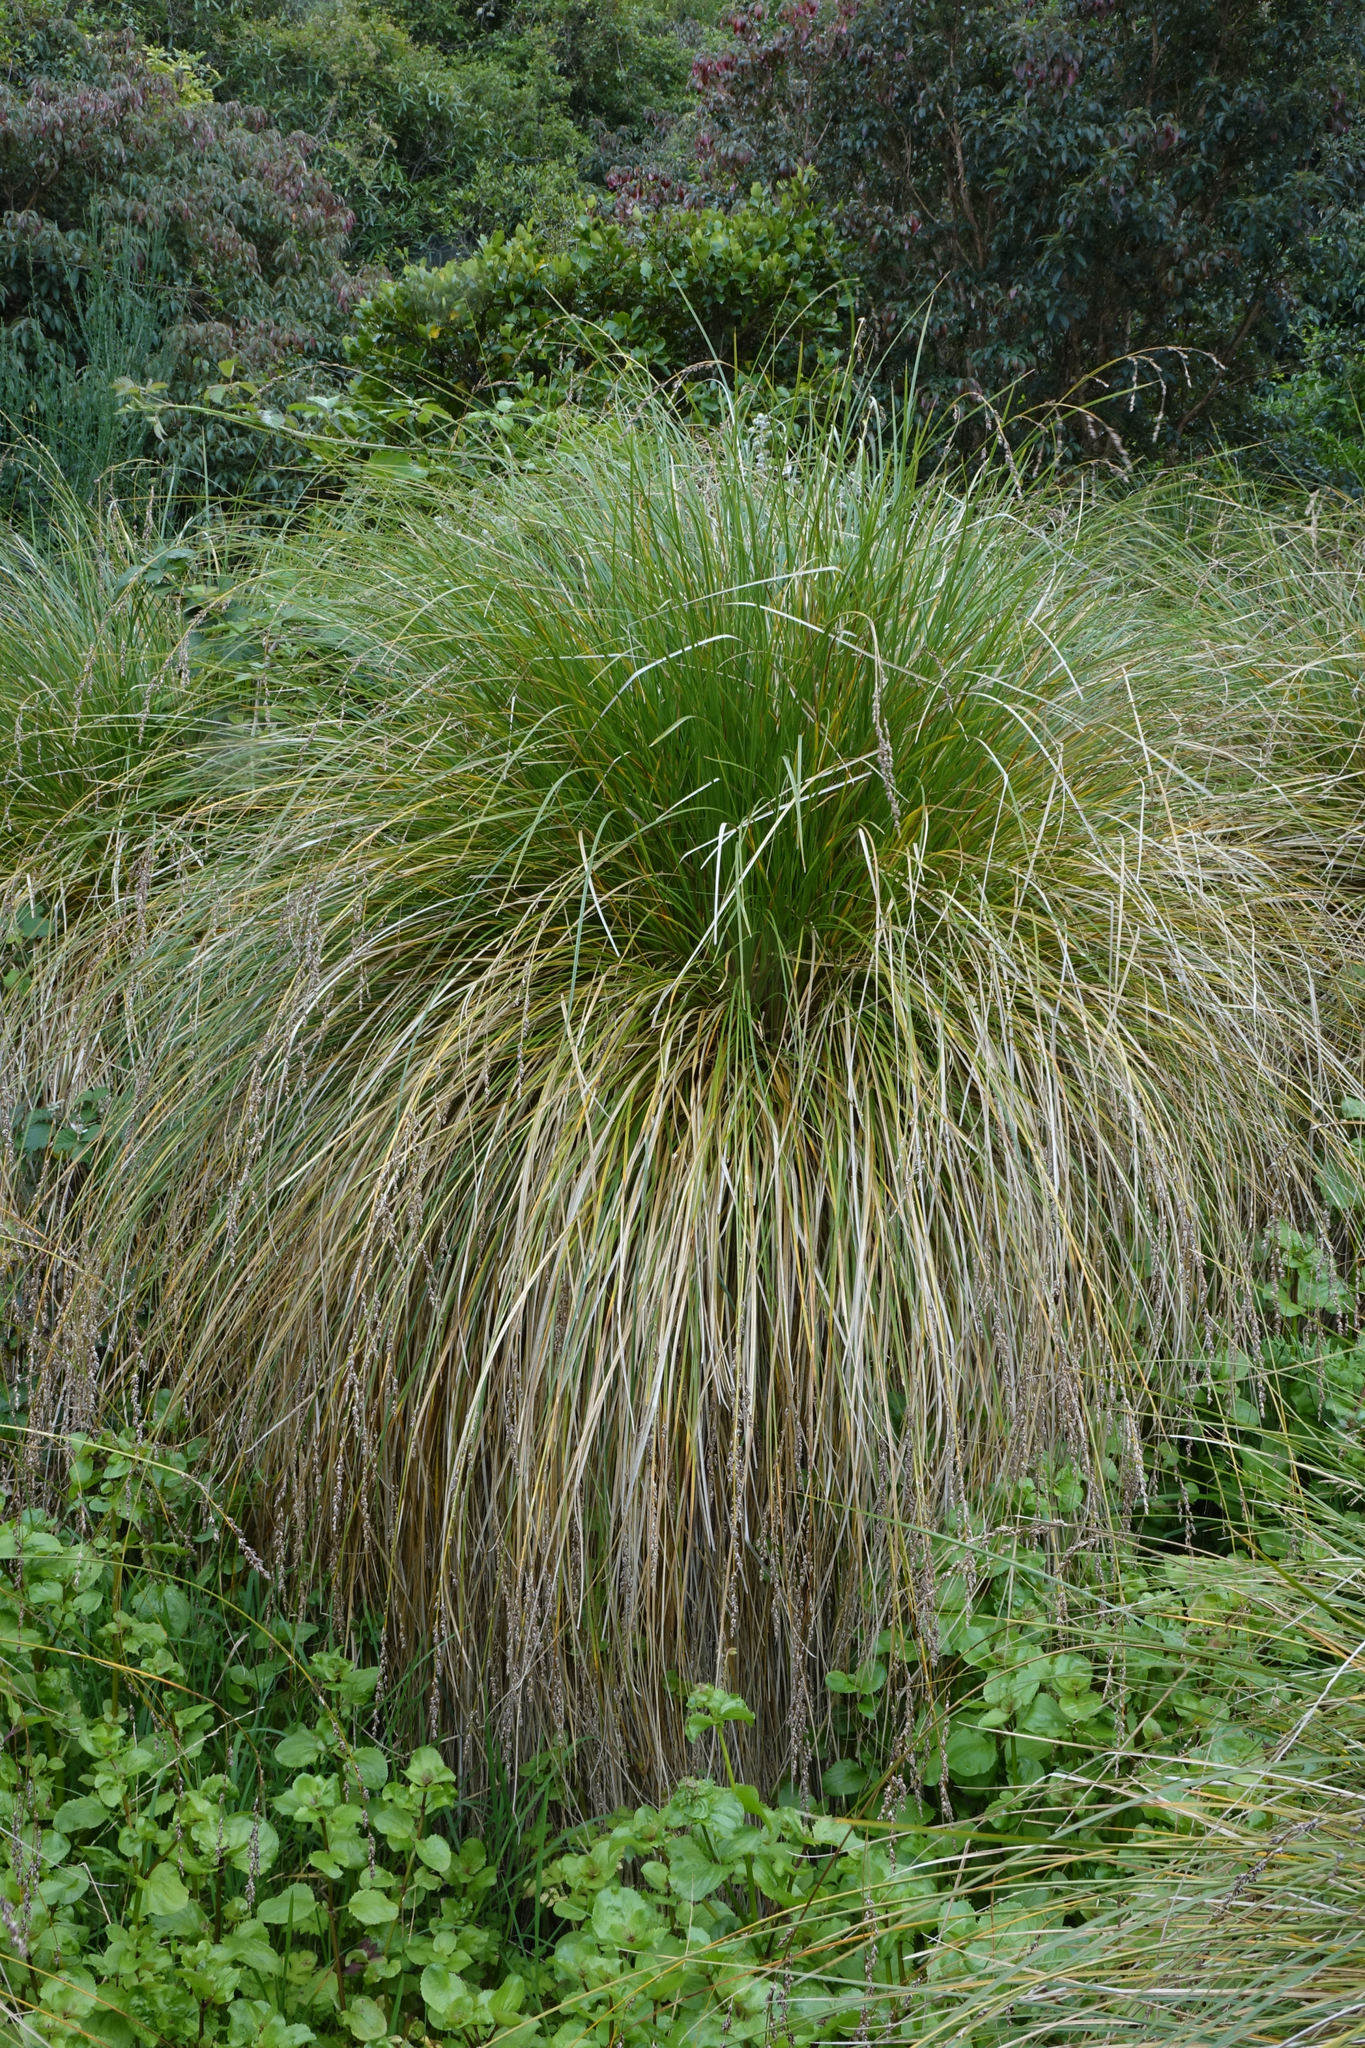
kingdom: Plantae
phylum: Tracheophyta
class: Liliopsida
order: Poales
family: Cyperaceae
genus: Carex
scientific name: Carex secta
